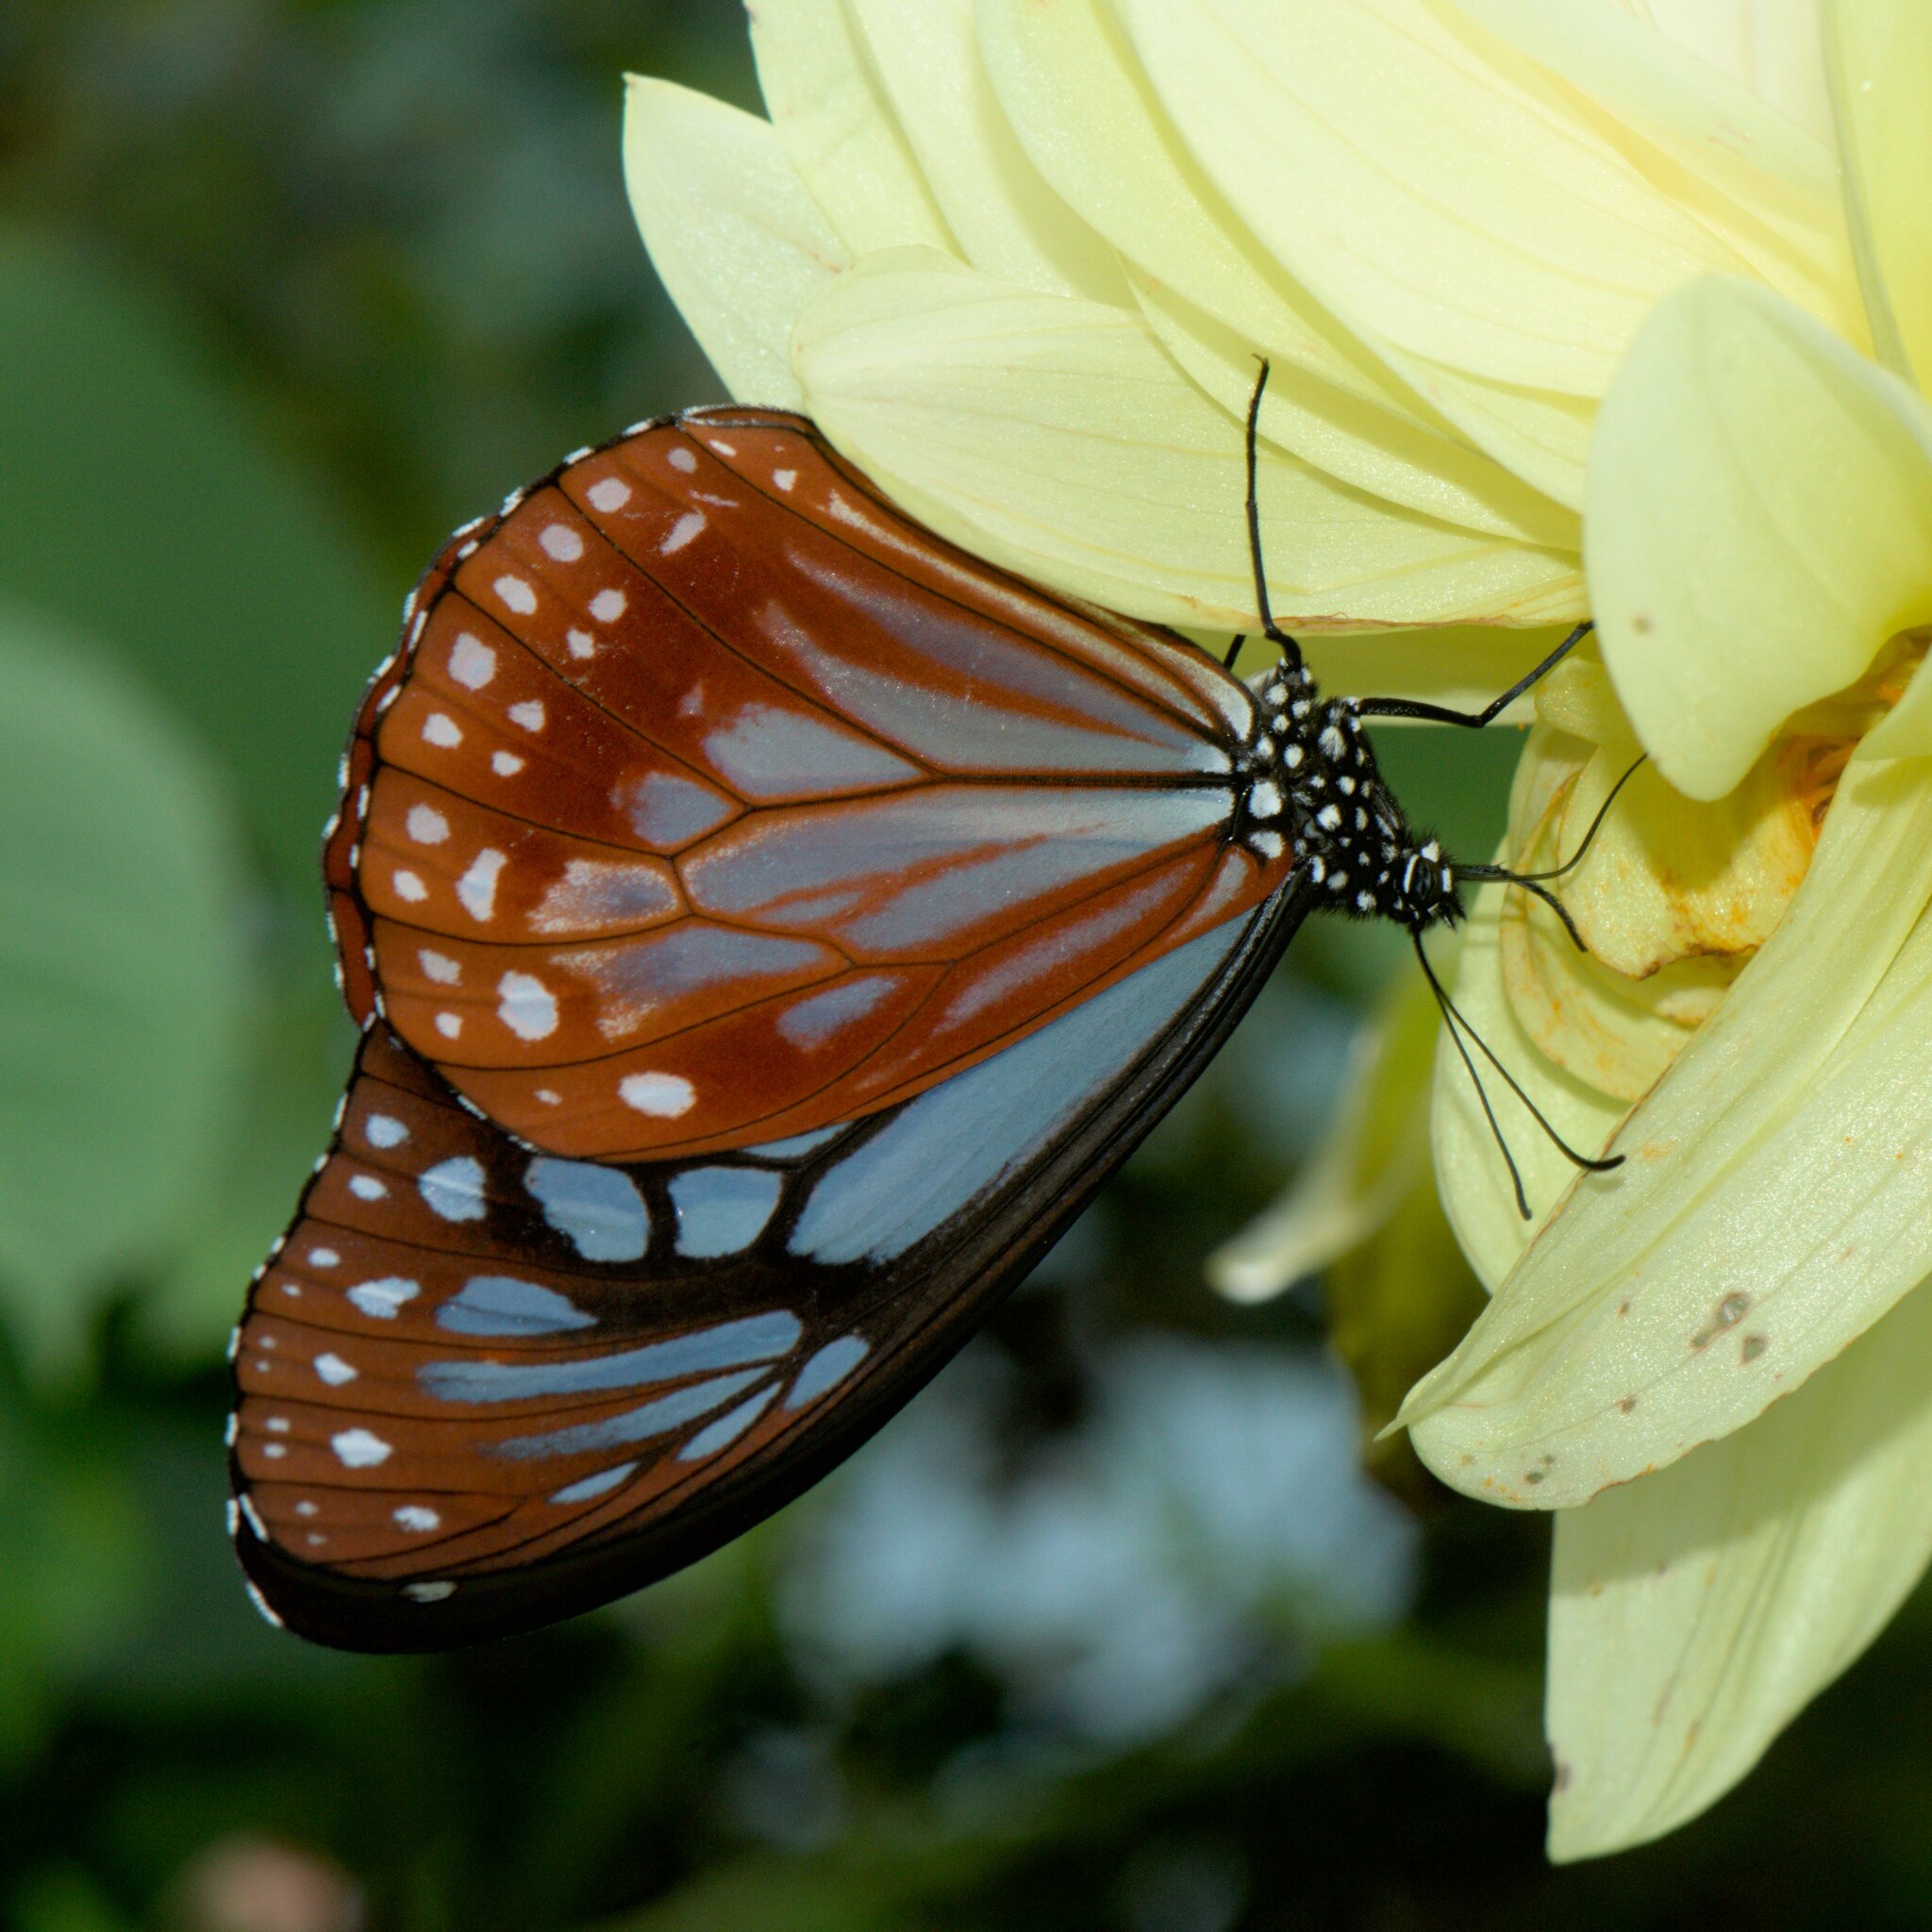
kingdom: Animalia
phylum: Arthropoda
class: Insecta
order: Lepidoptera
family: Nymphalidae
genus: Parantica
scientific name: Parantica sita
